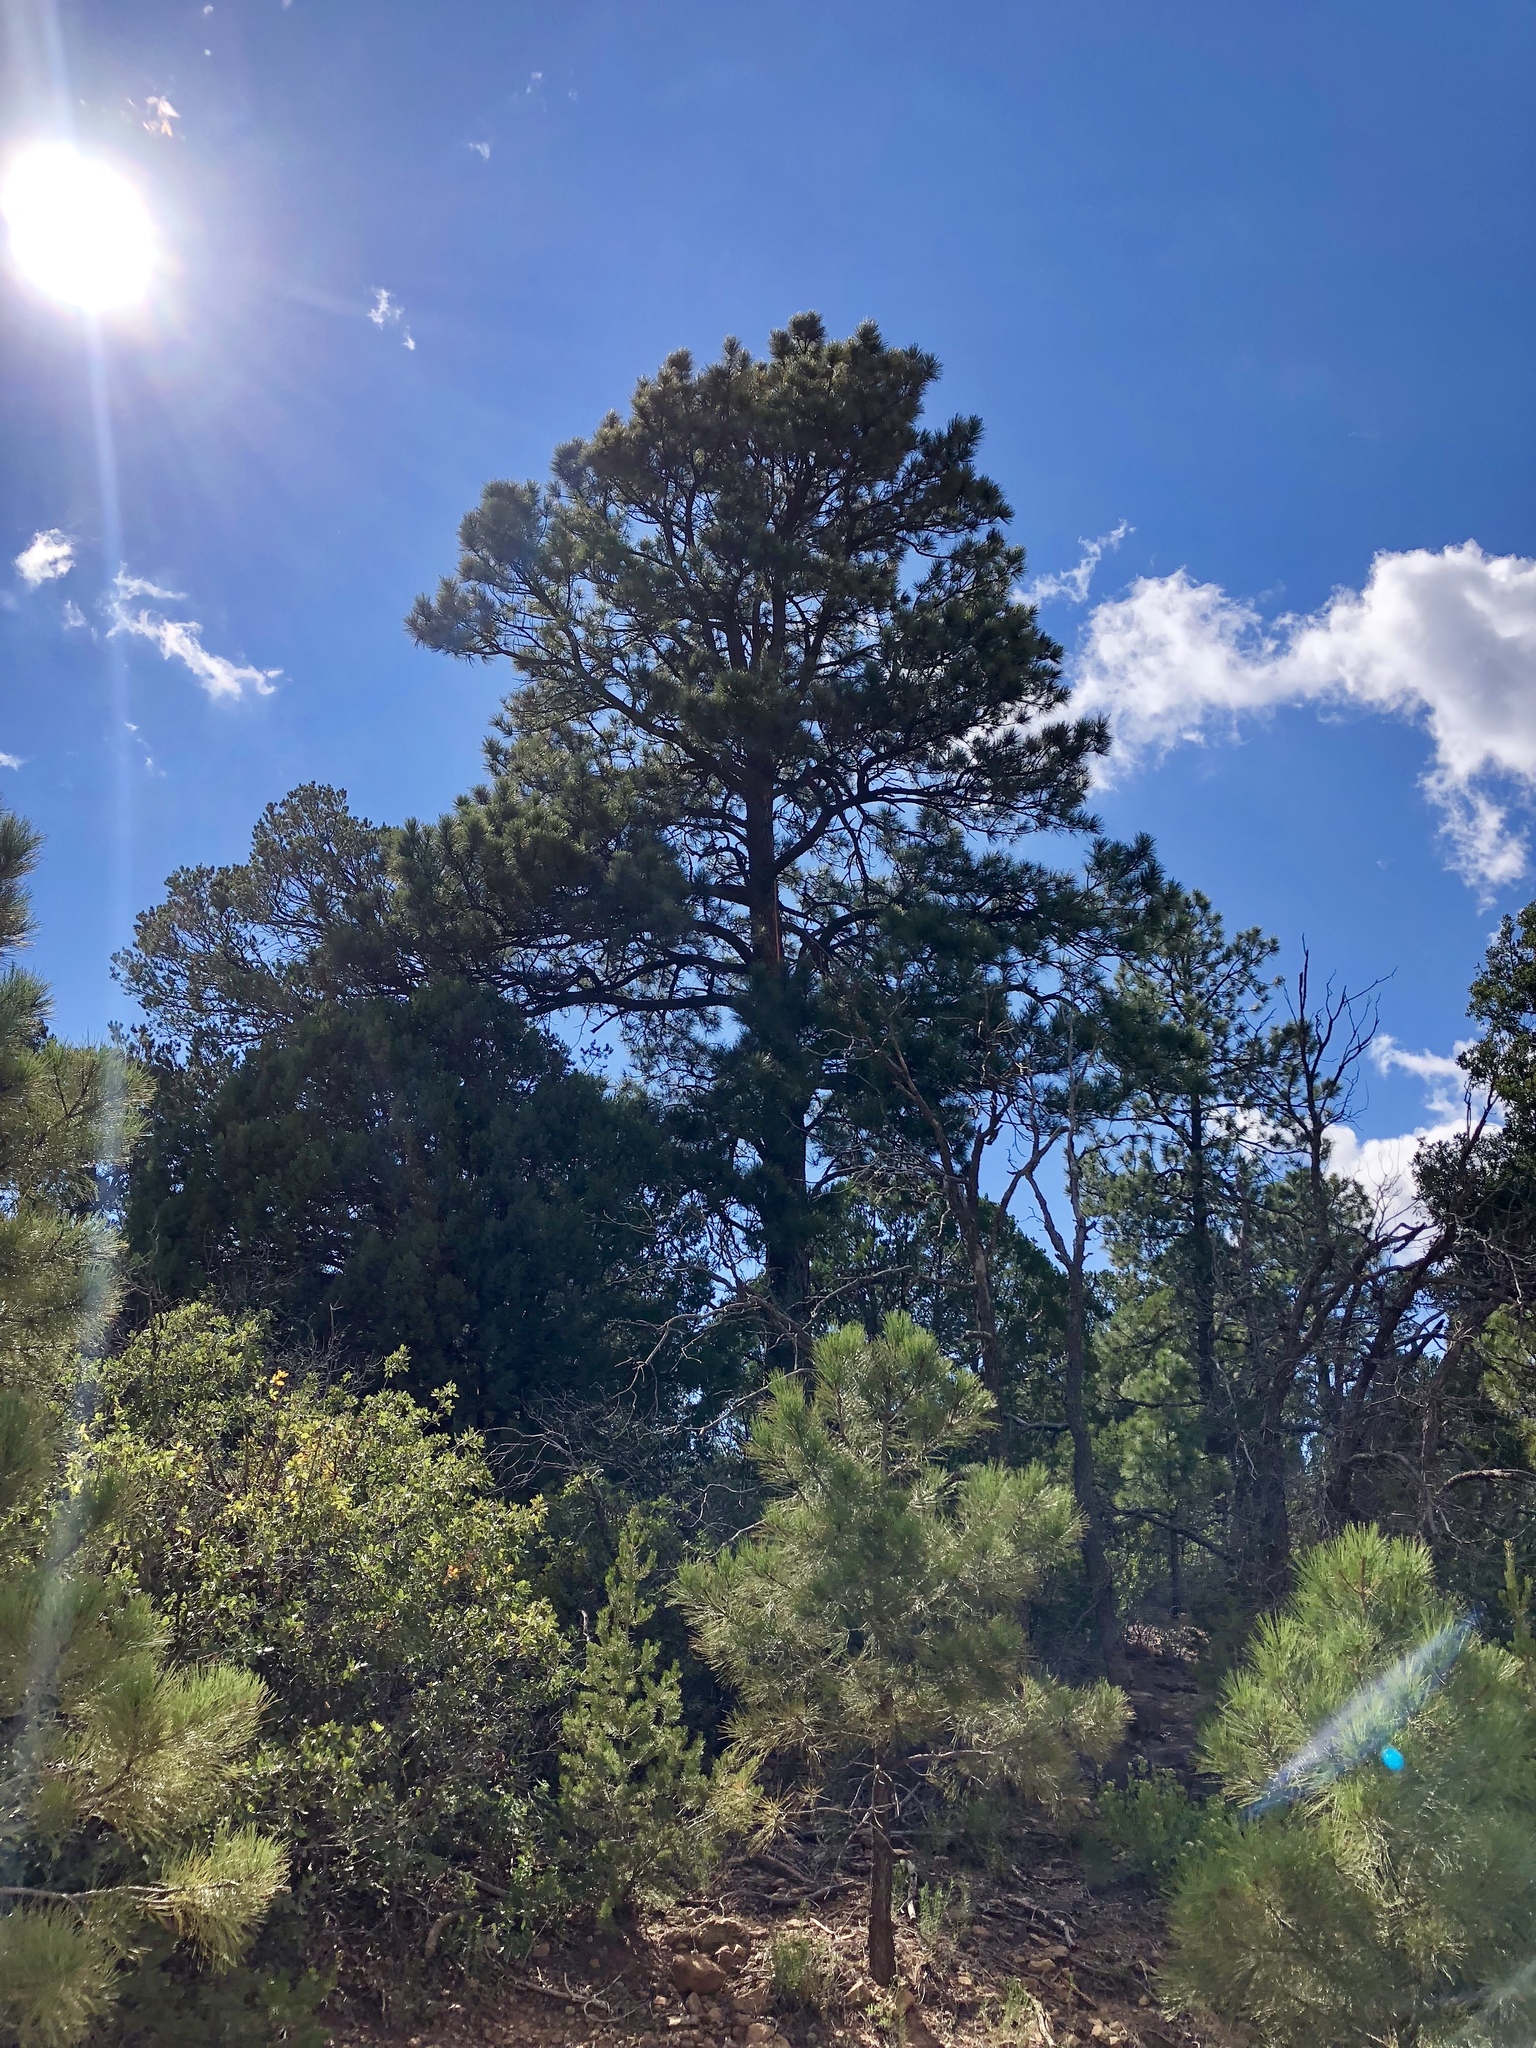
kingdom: Plantae
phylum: Tracheophyta
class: Pinopsida
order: Pinales
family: Pinaceae
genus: Pinus
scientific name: Pinus ponderosa
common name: Western yellow-pine
